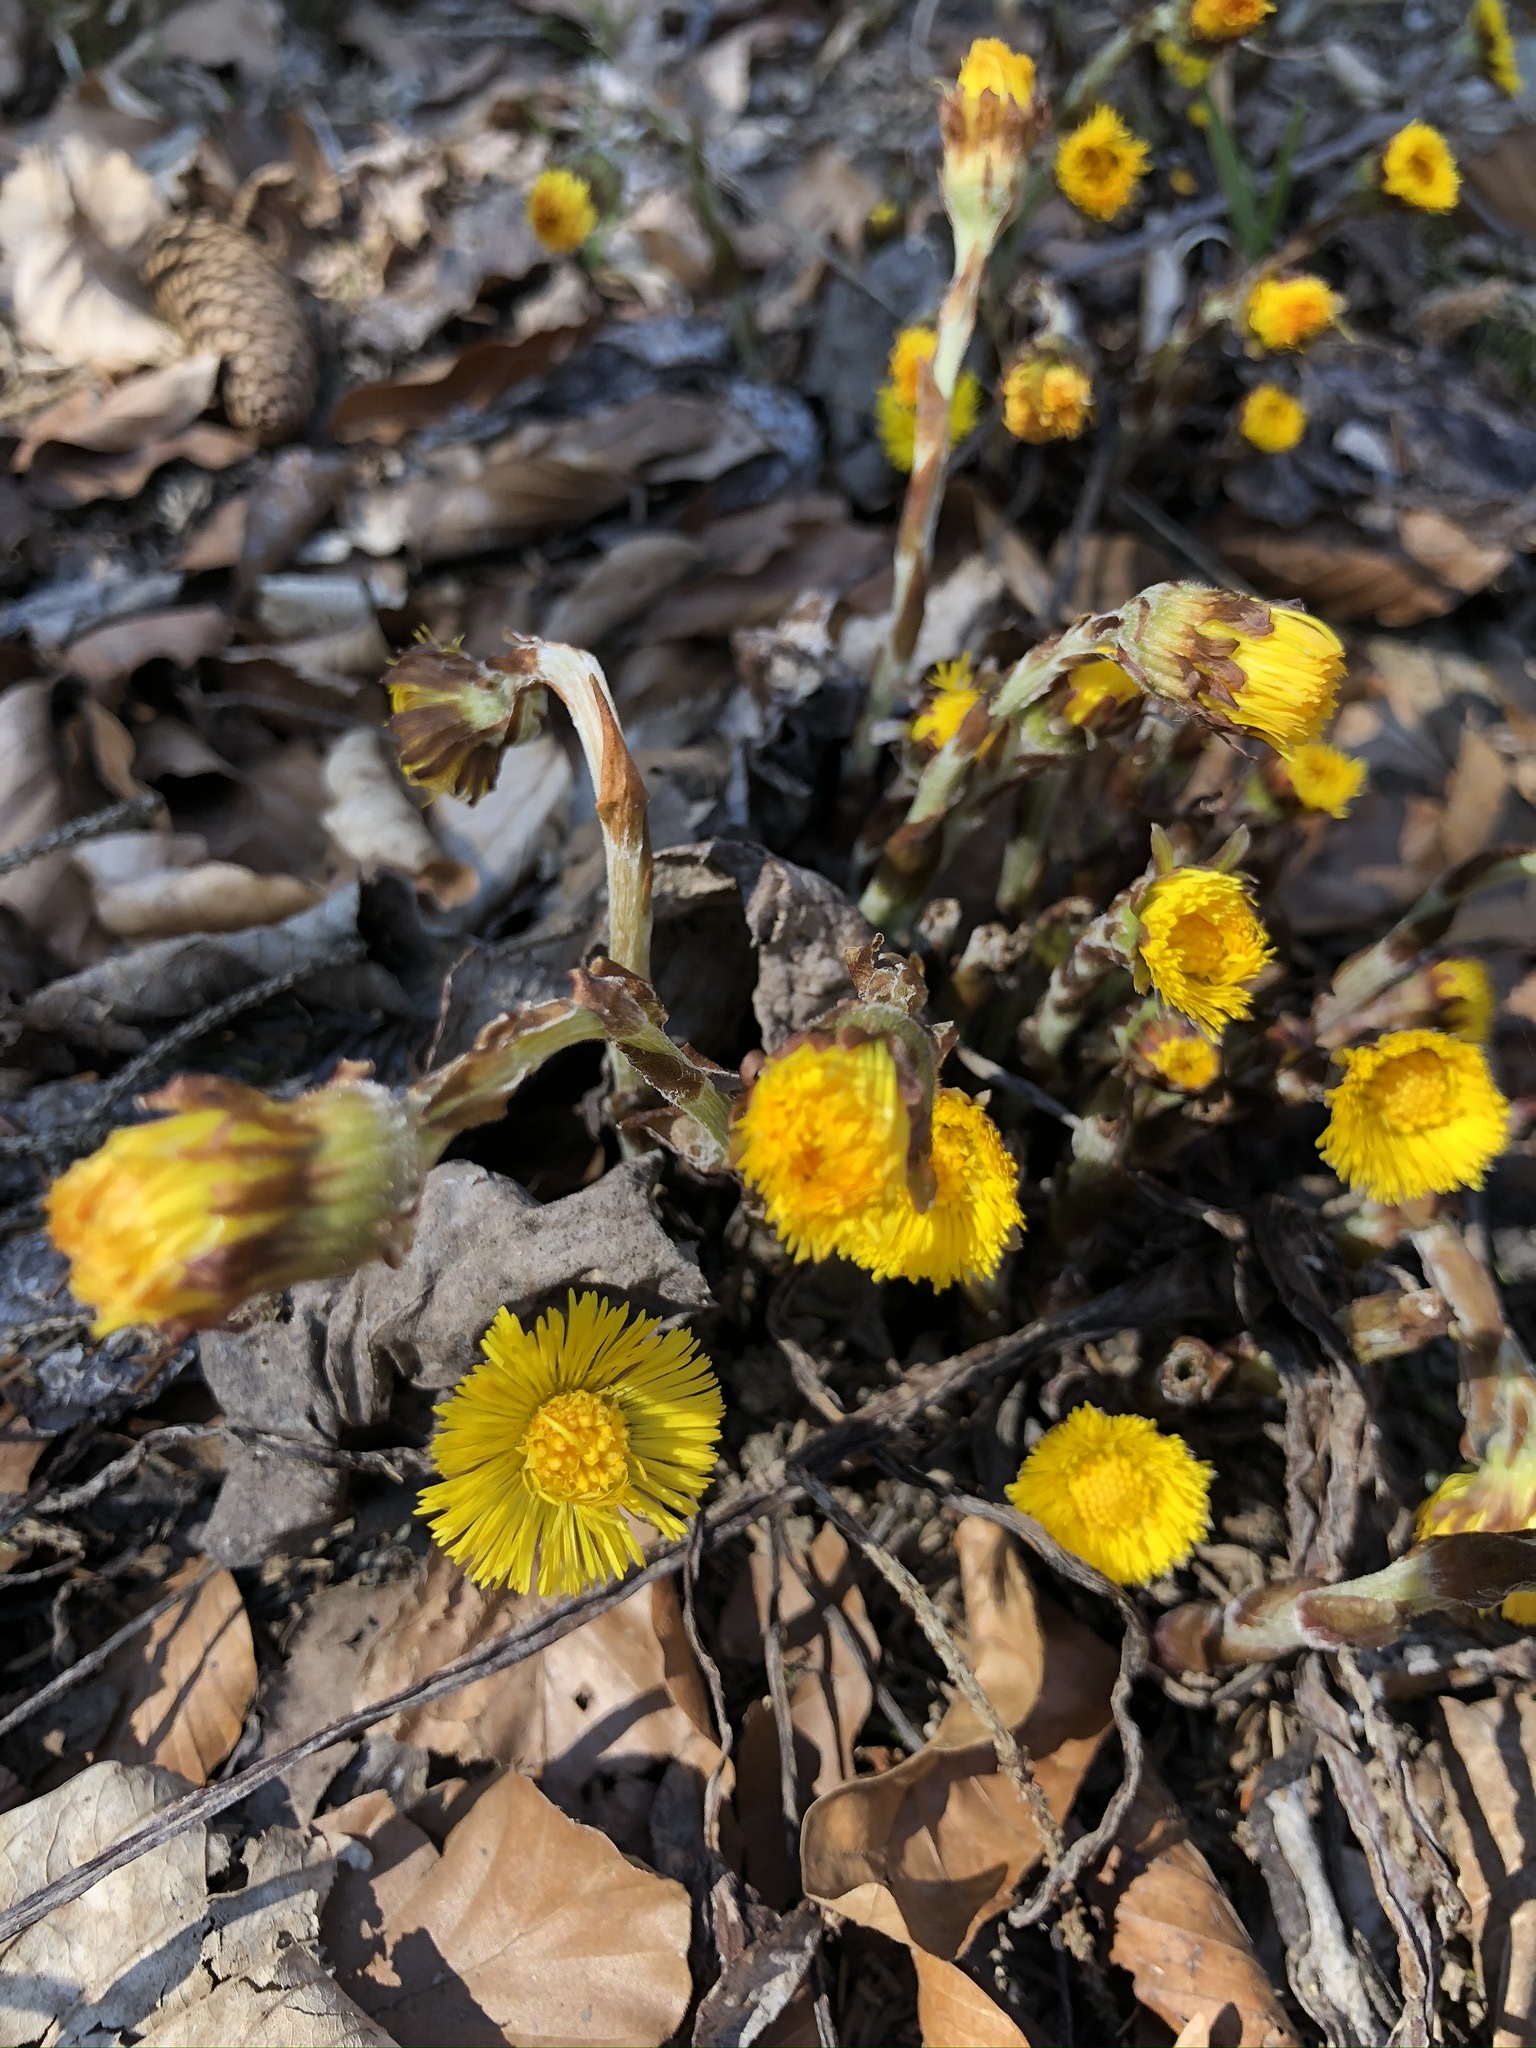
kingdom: Plantae
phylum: Tracheophyta
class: Magnoliopsida
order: Asterales
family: Asteraceae
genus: Tussilago
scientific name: Tussilago farfara
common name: Coltsfoot
